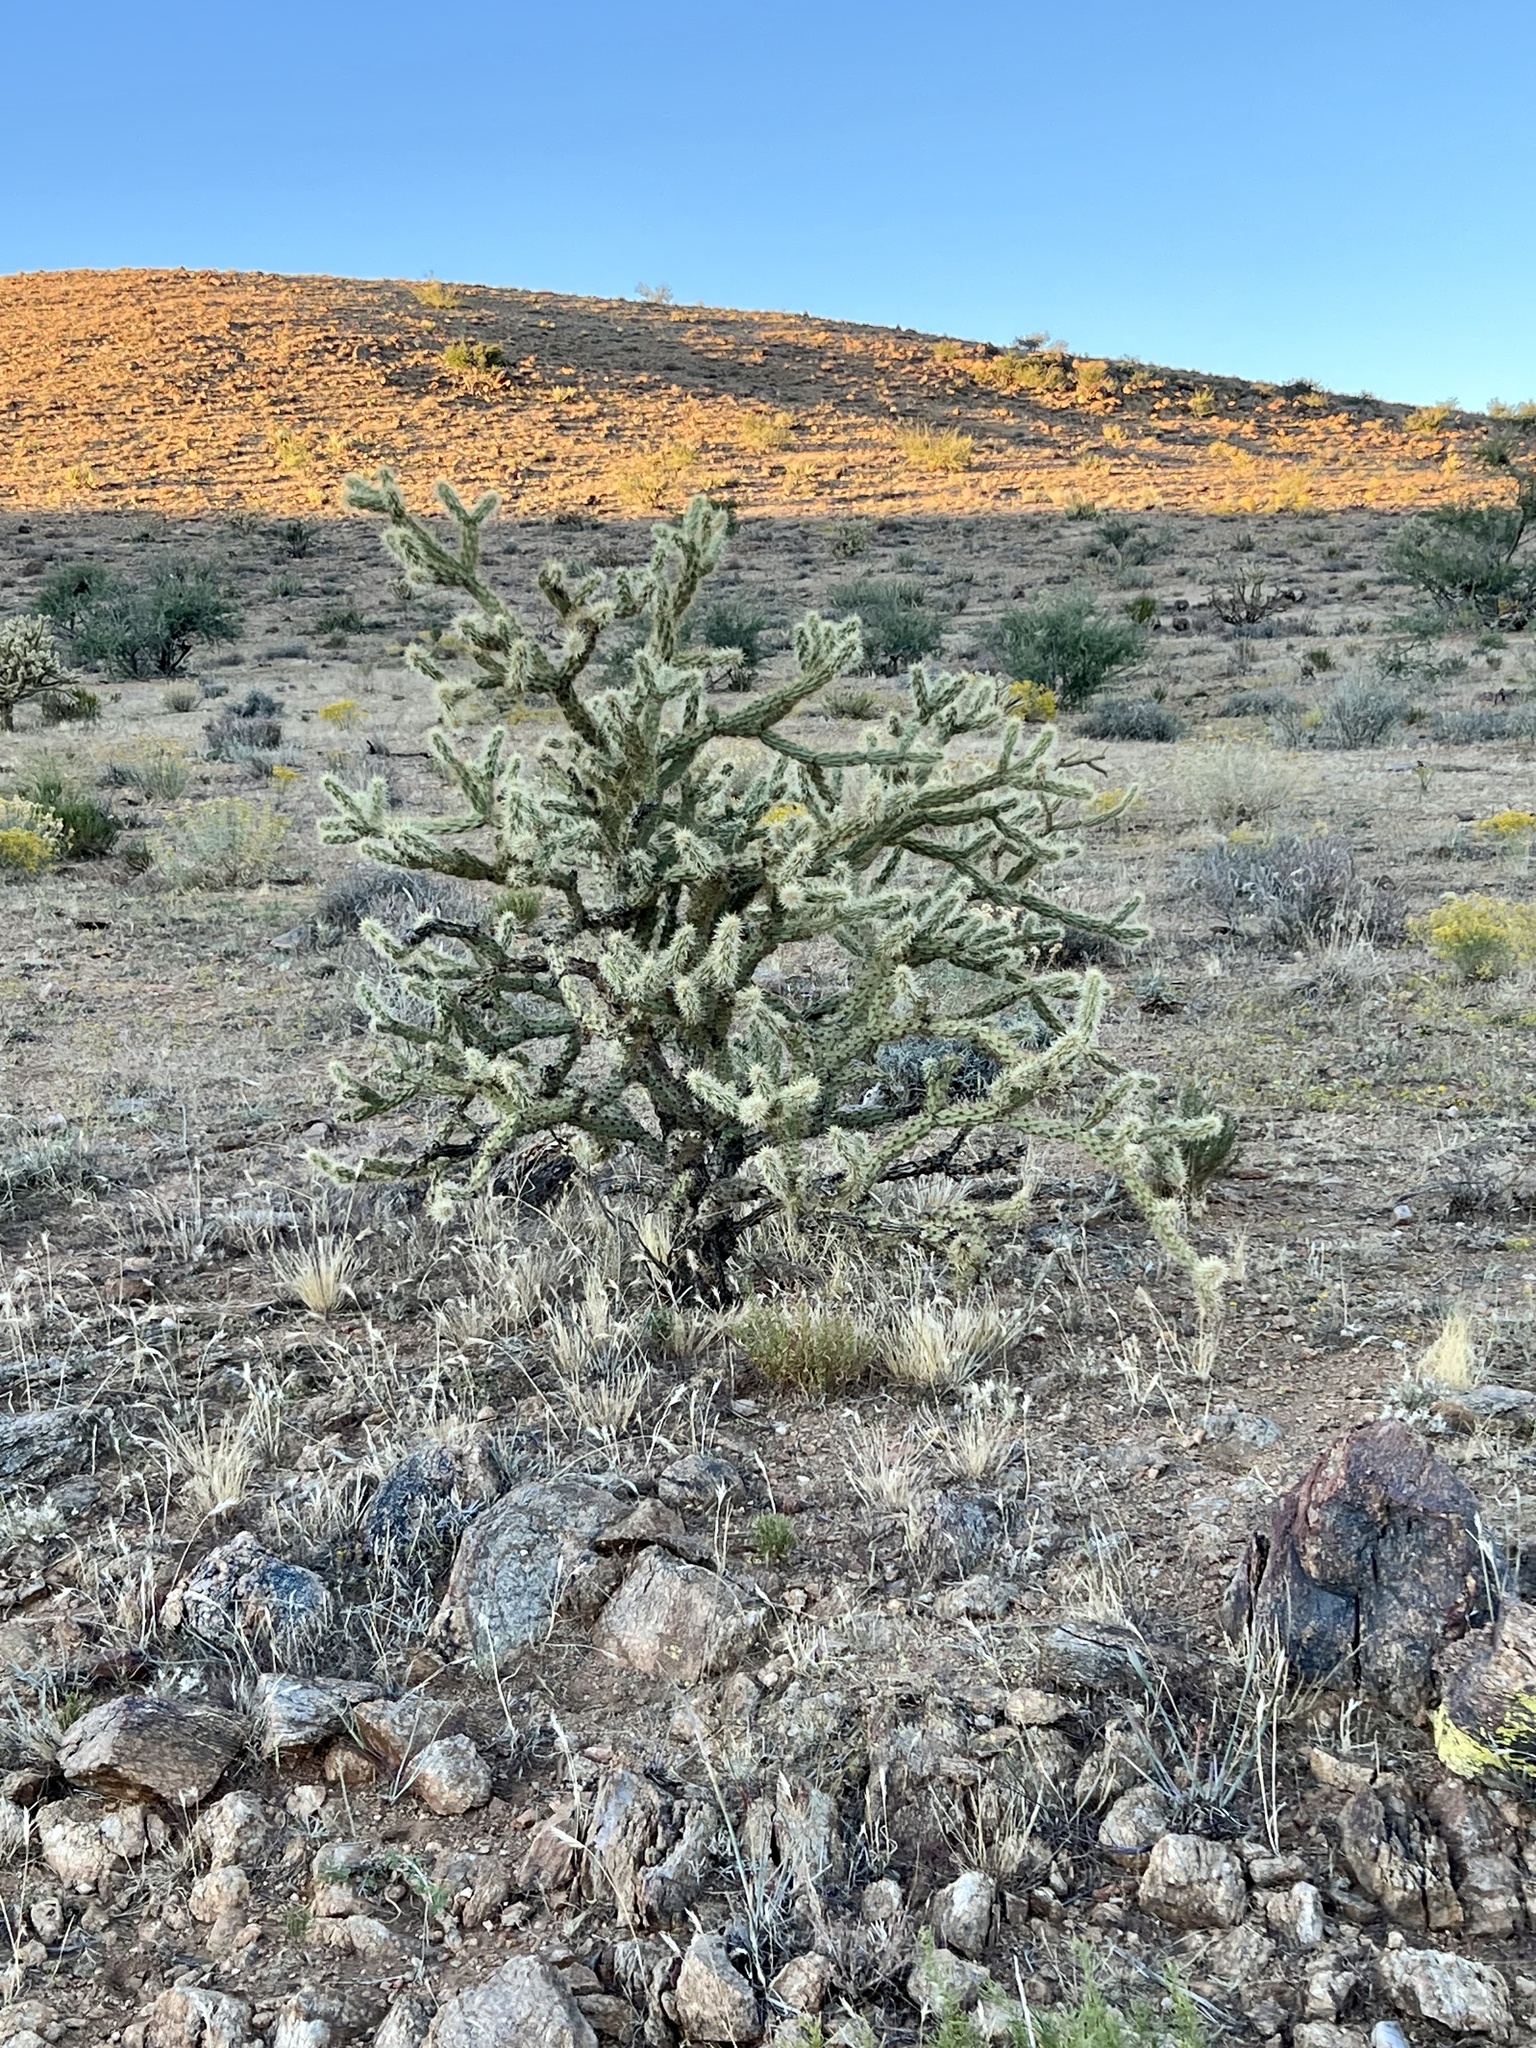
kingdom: Plantae
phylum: Tracheophyta
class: Magnoliopsida
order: Caryophyllales
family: Cactaceae
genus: Cylindropuntia
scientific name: Cylindropuntia acanthocarpa
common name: Buckhorn cholla
